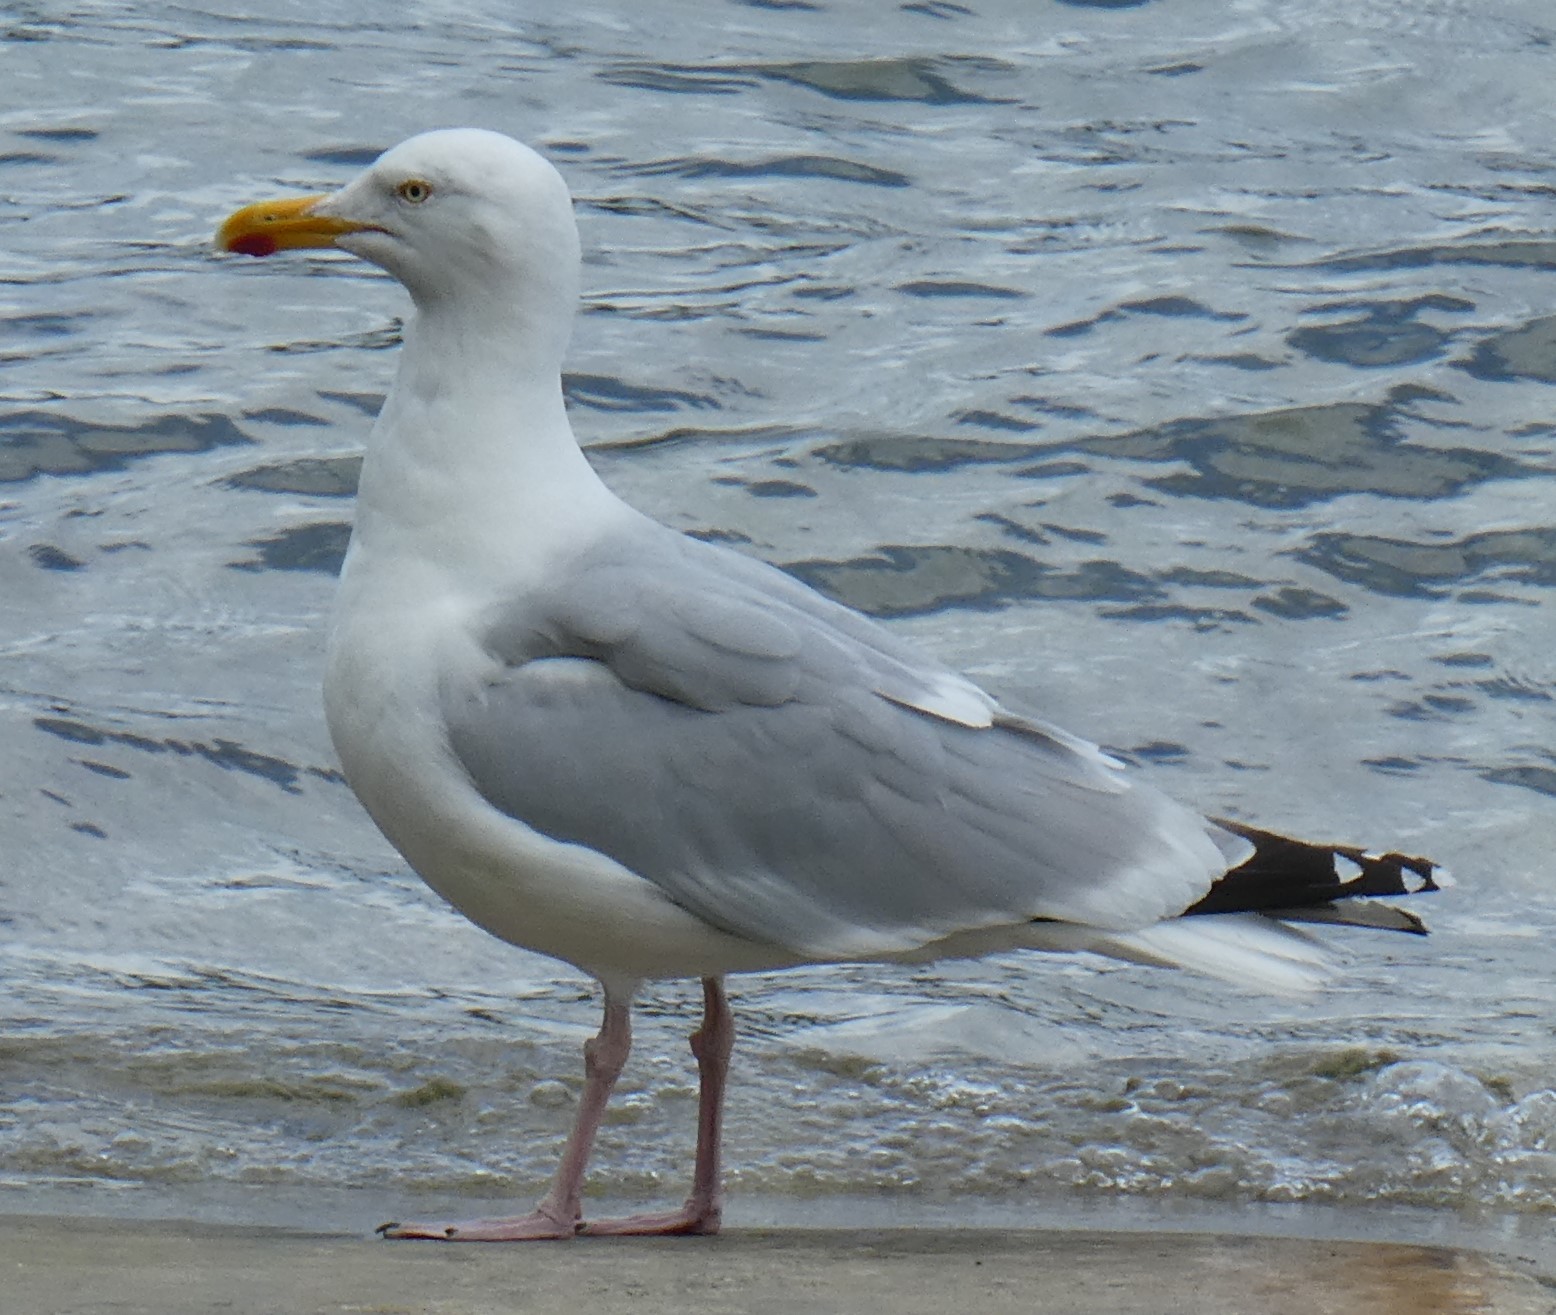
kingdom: Animalia
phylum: Chordata
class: Aves
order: Charadriiformes
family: Laridae
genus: Larus
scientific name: Larus argentatus
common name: Herring gull
